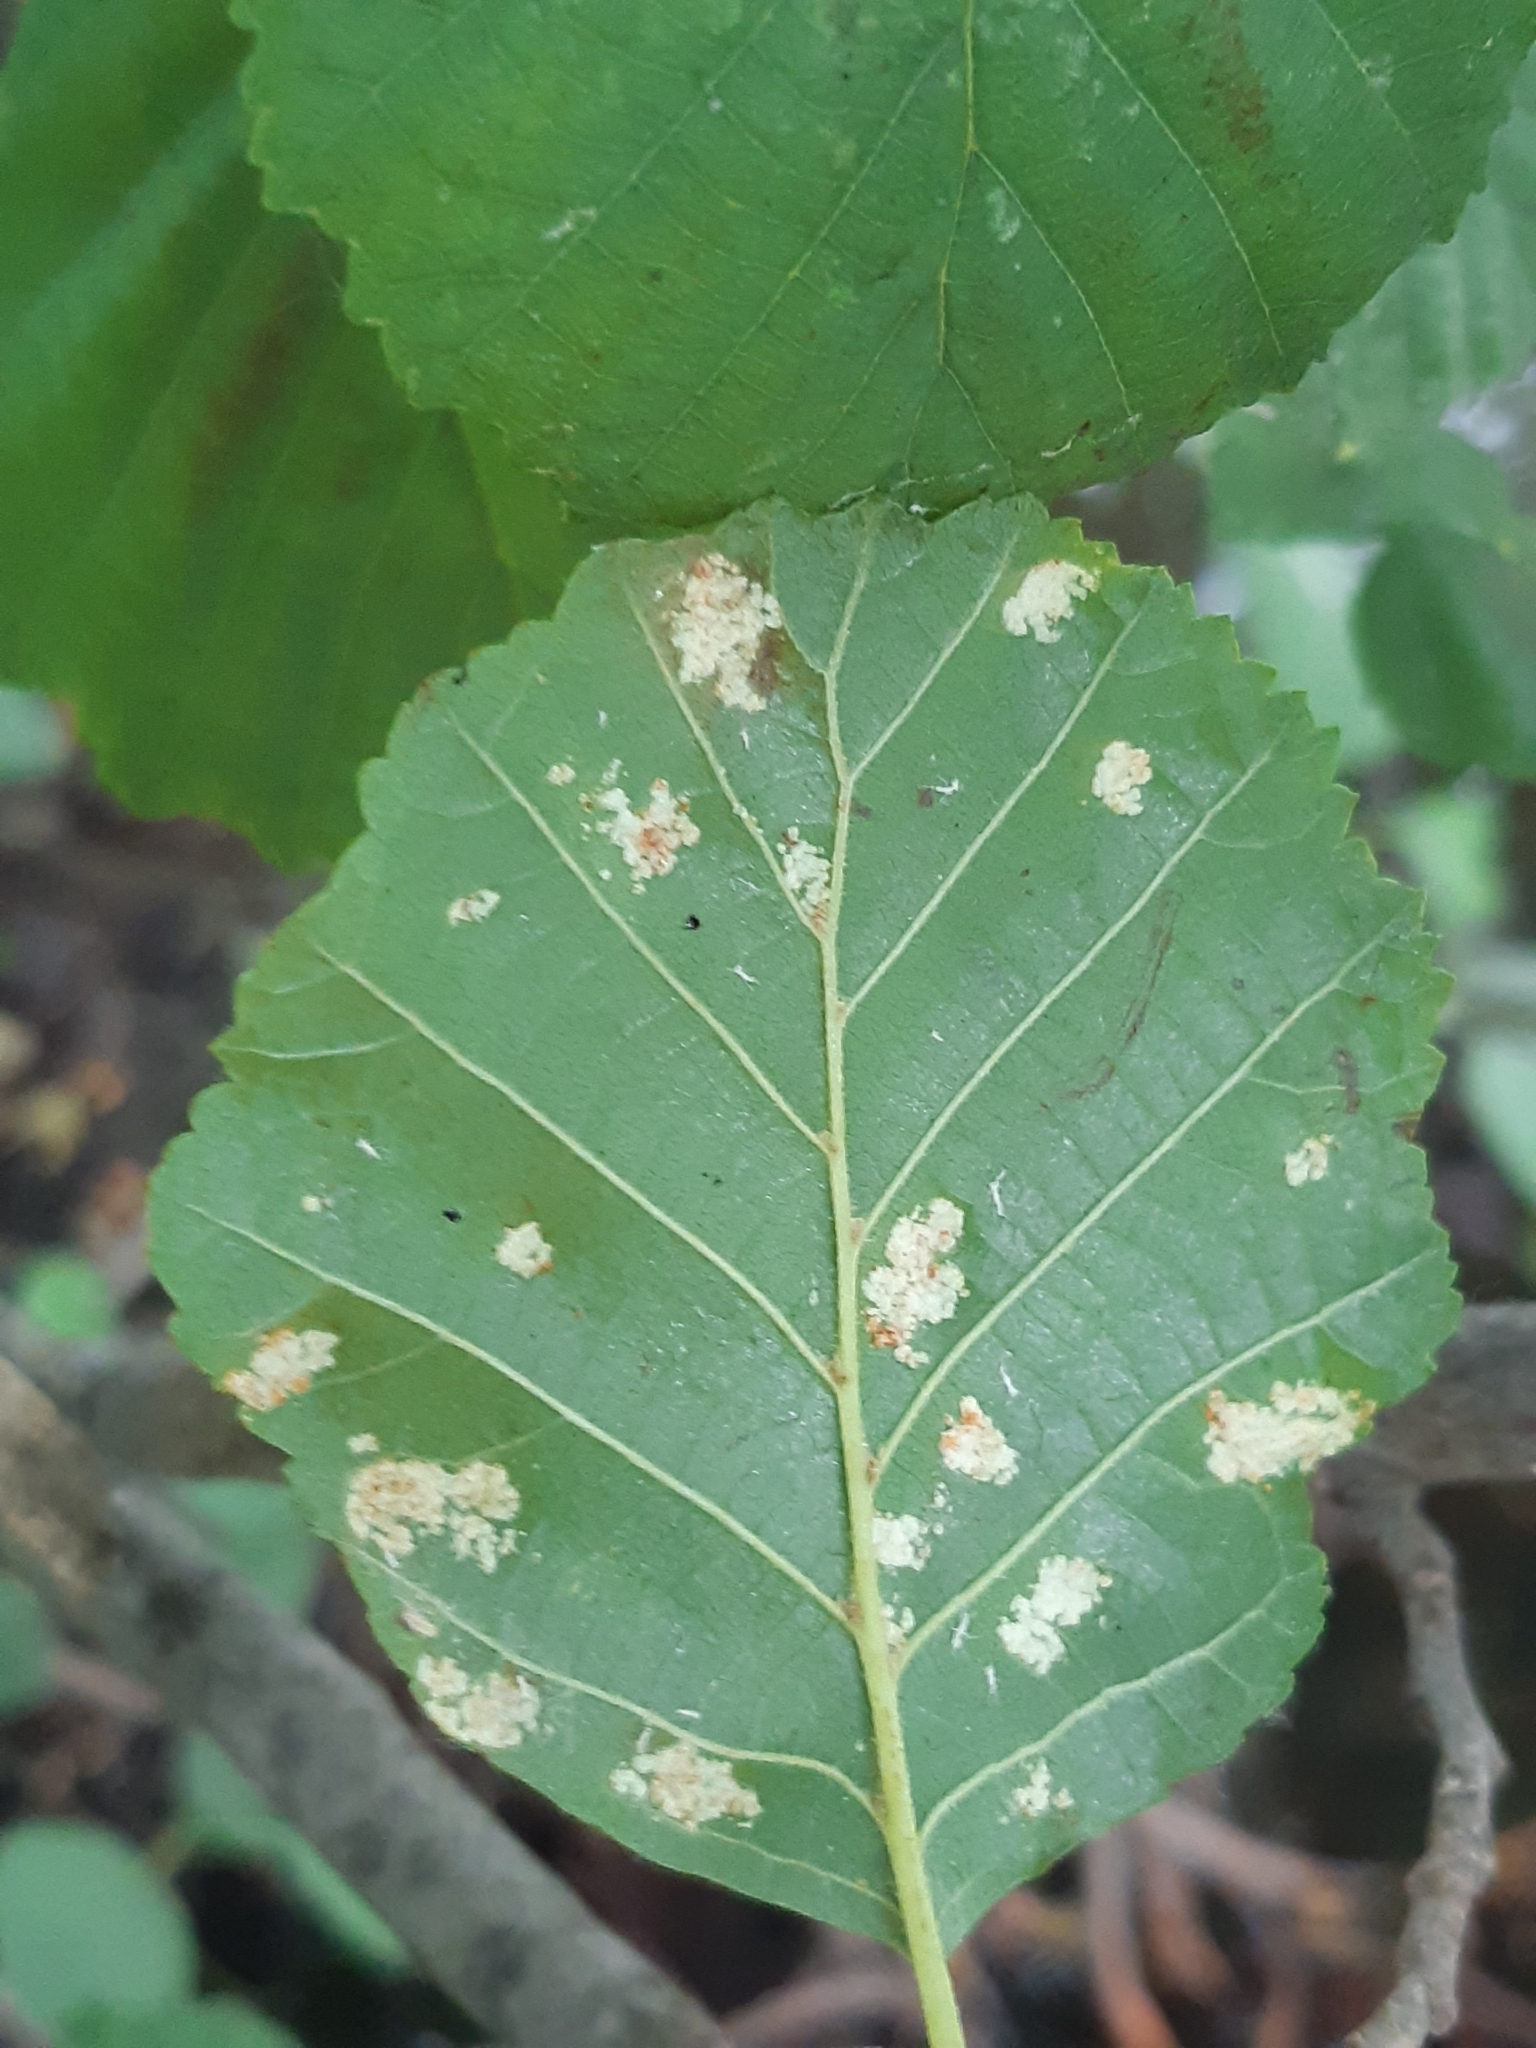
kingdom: Animalia
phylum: Arthropoda
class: Arachnida
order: Trombidiformes
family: Eriophyidae
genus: Acalitus
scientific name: Acalitus brevitarsus
